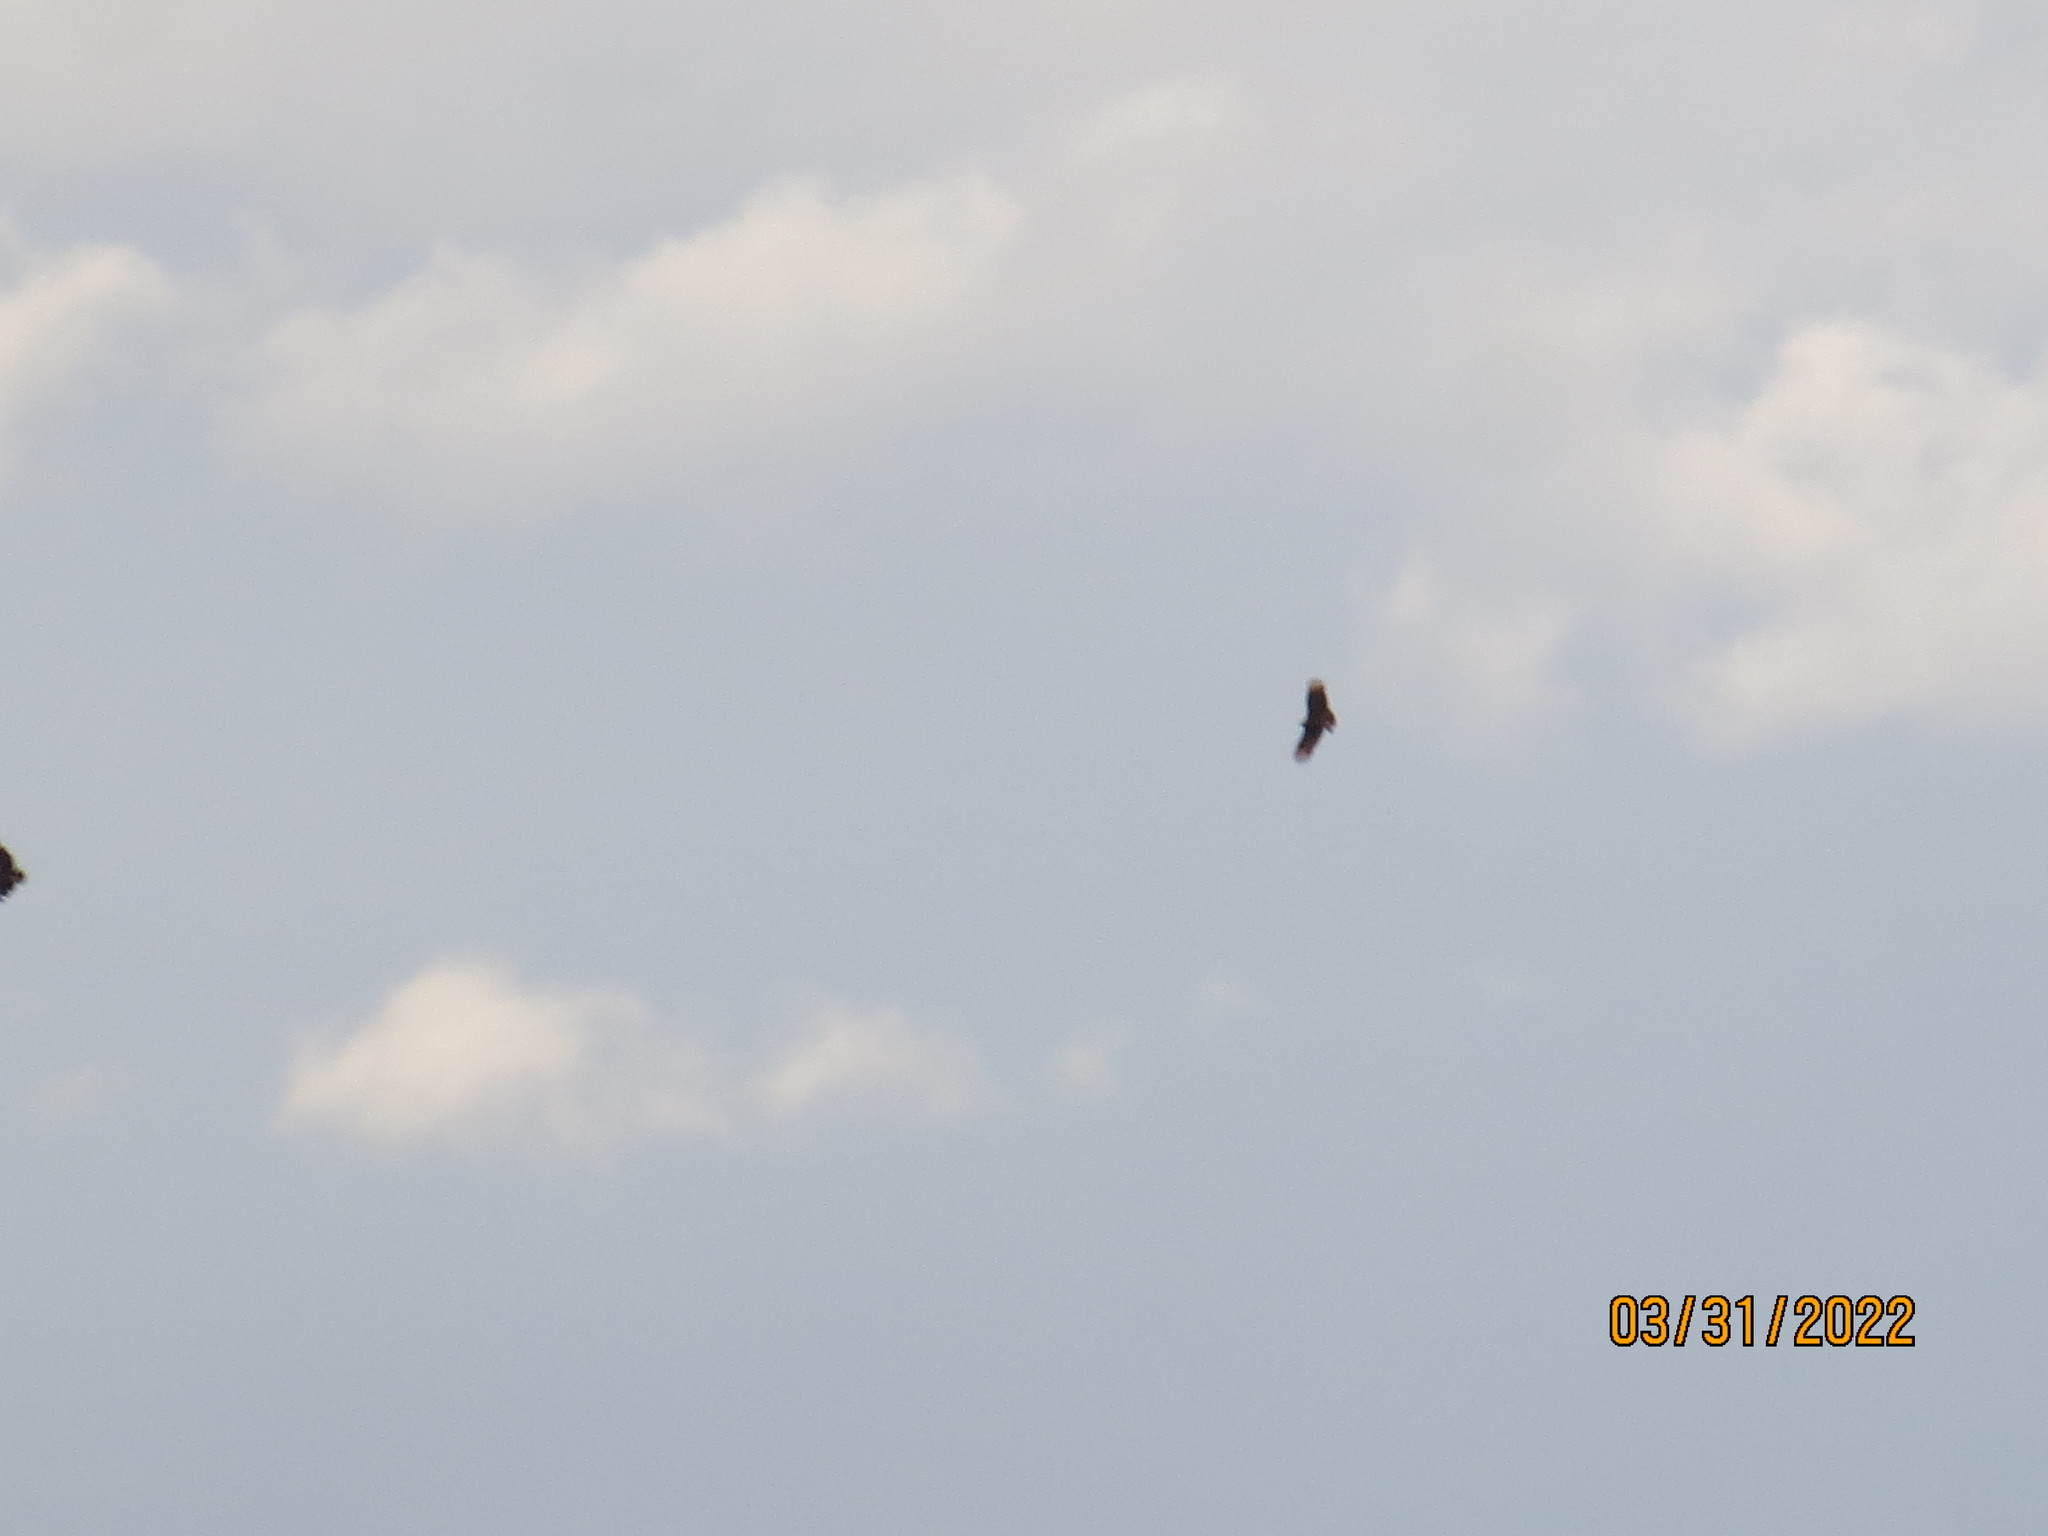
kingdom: Animalia
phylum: Chordata
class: Aves
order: Accipitriformes
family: Cathartidae
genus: Coragyps
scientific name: Coragyps atratus
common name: Black vulture
